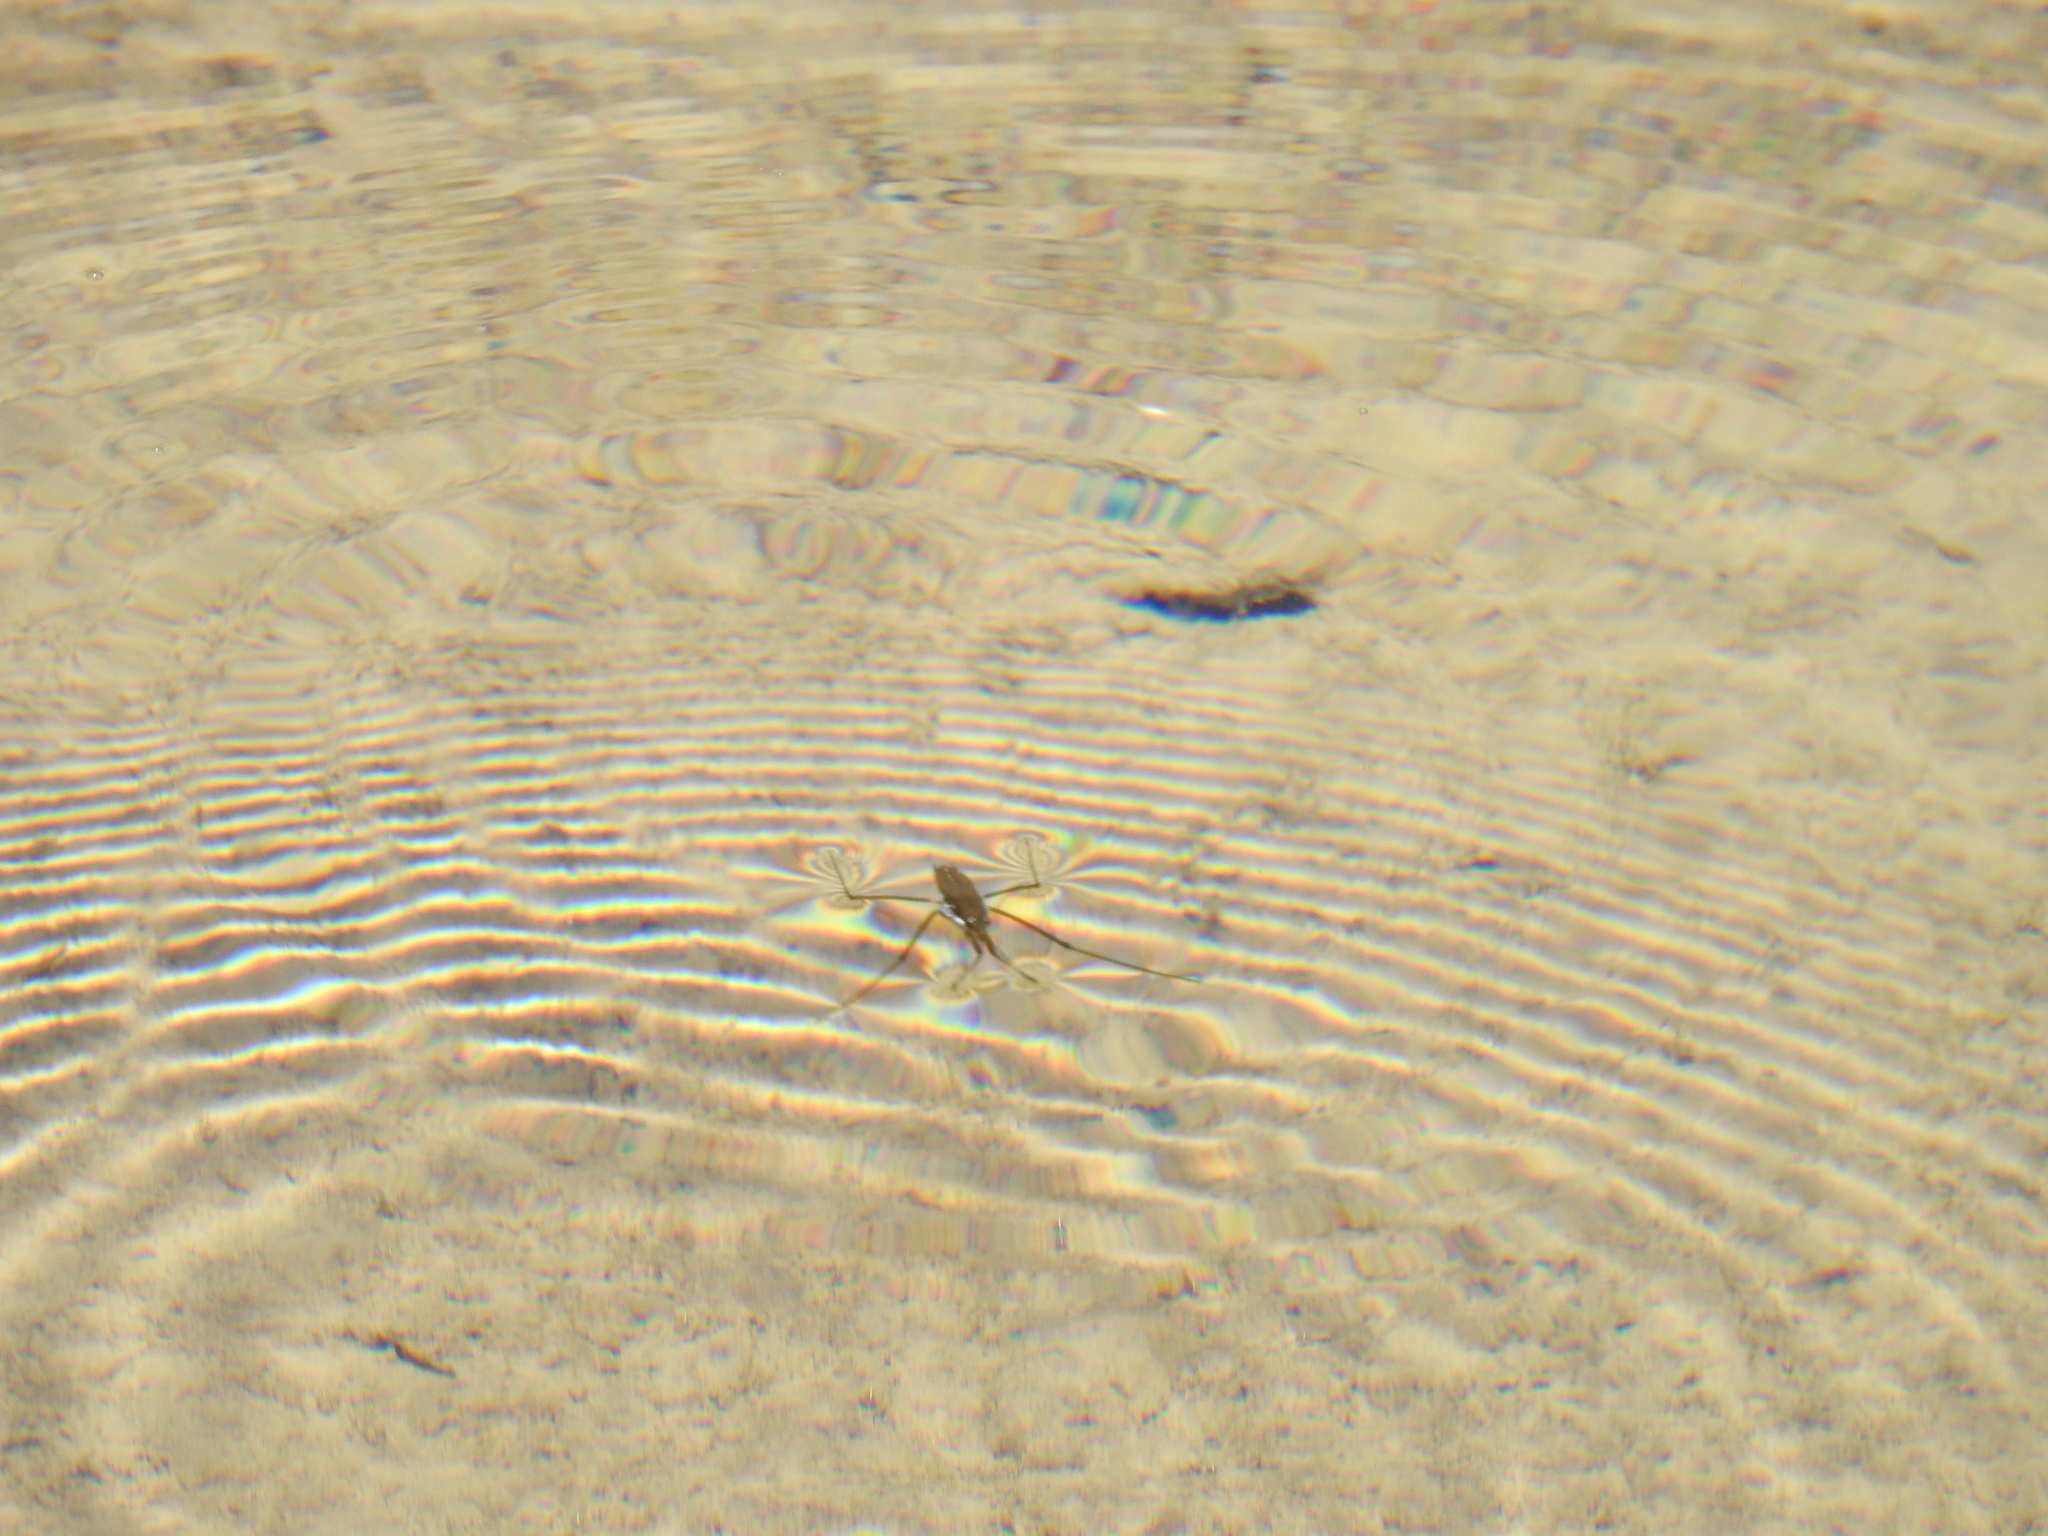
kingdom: Animalia
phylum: Arthropoda
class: Insecta
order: Hemiptera
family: Gerridae
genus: Aquarius
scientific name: Aquarius remigis
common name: Common water strider
